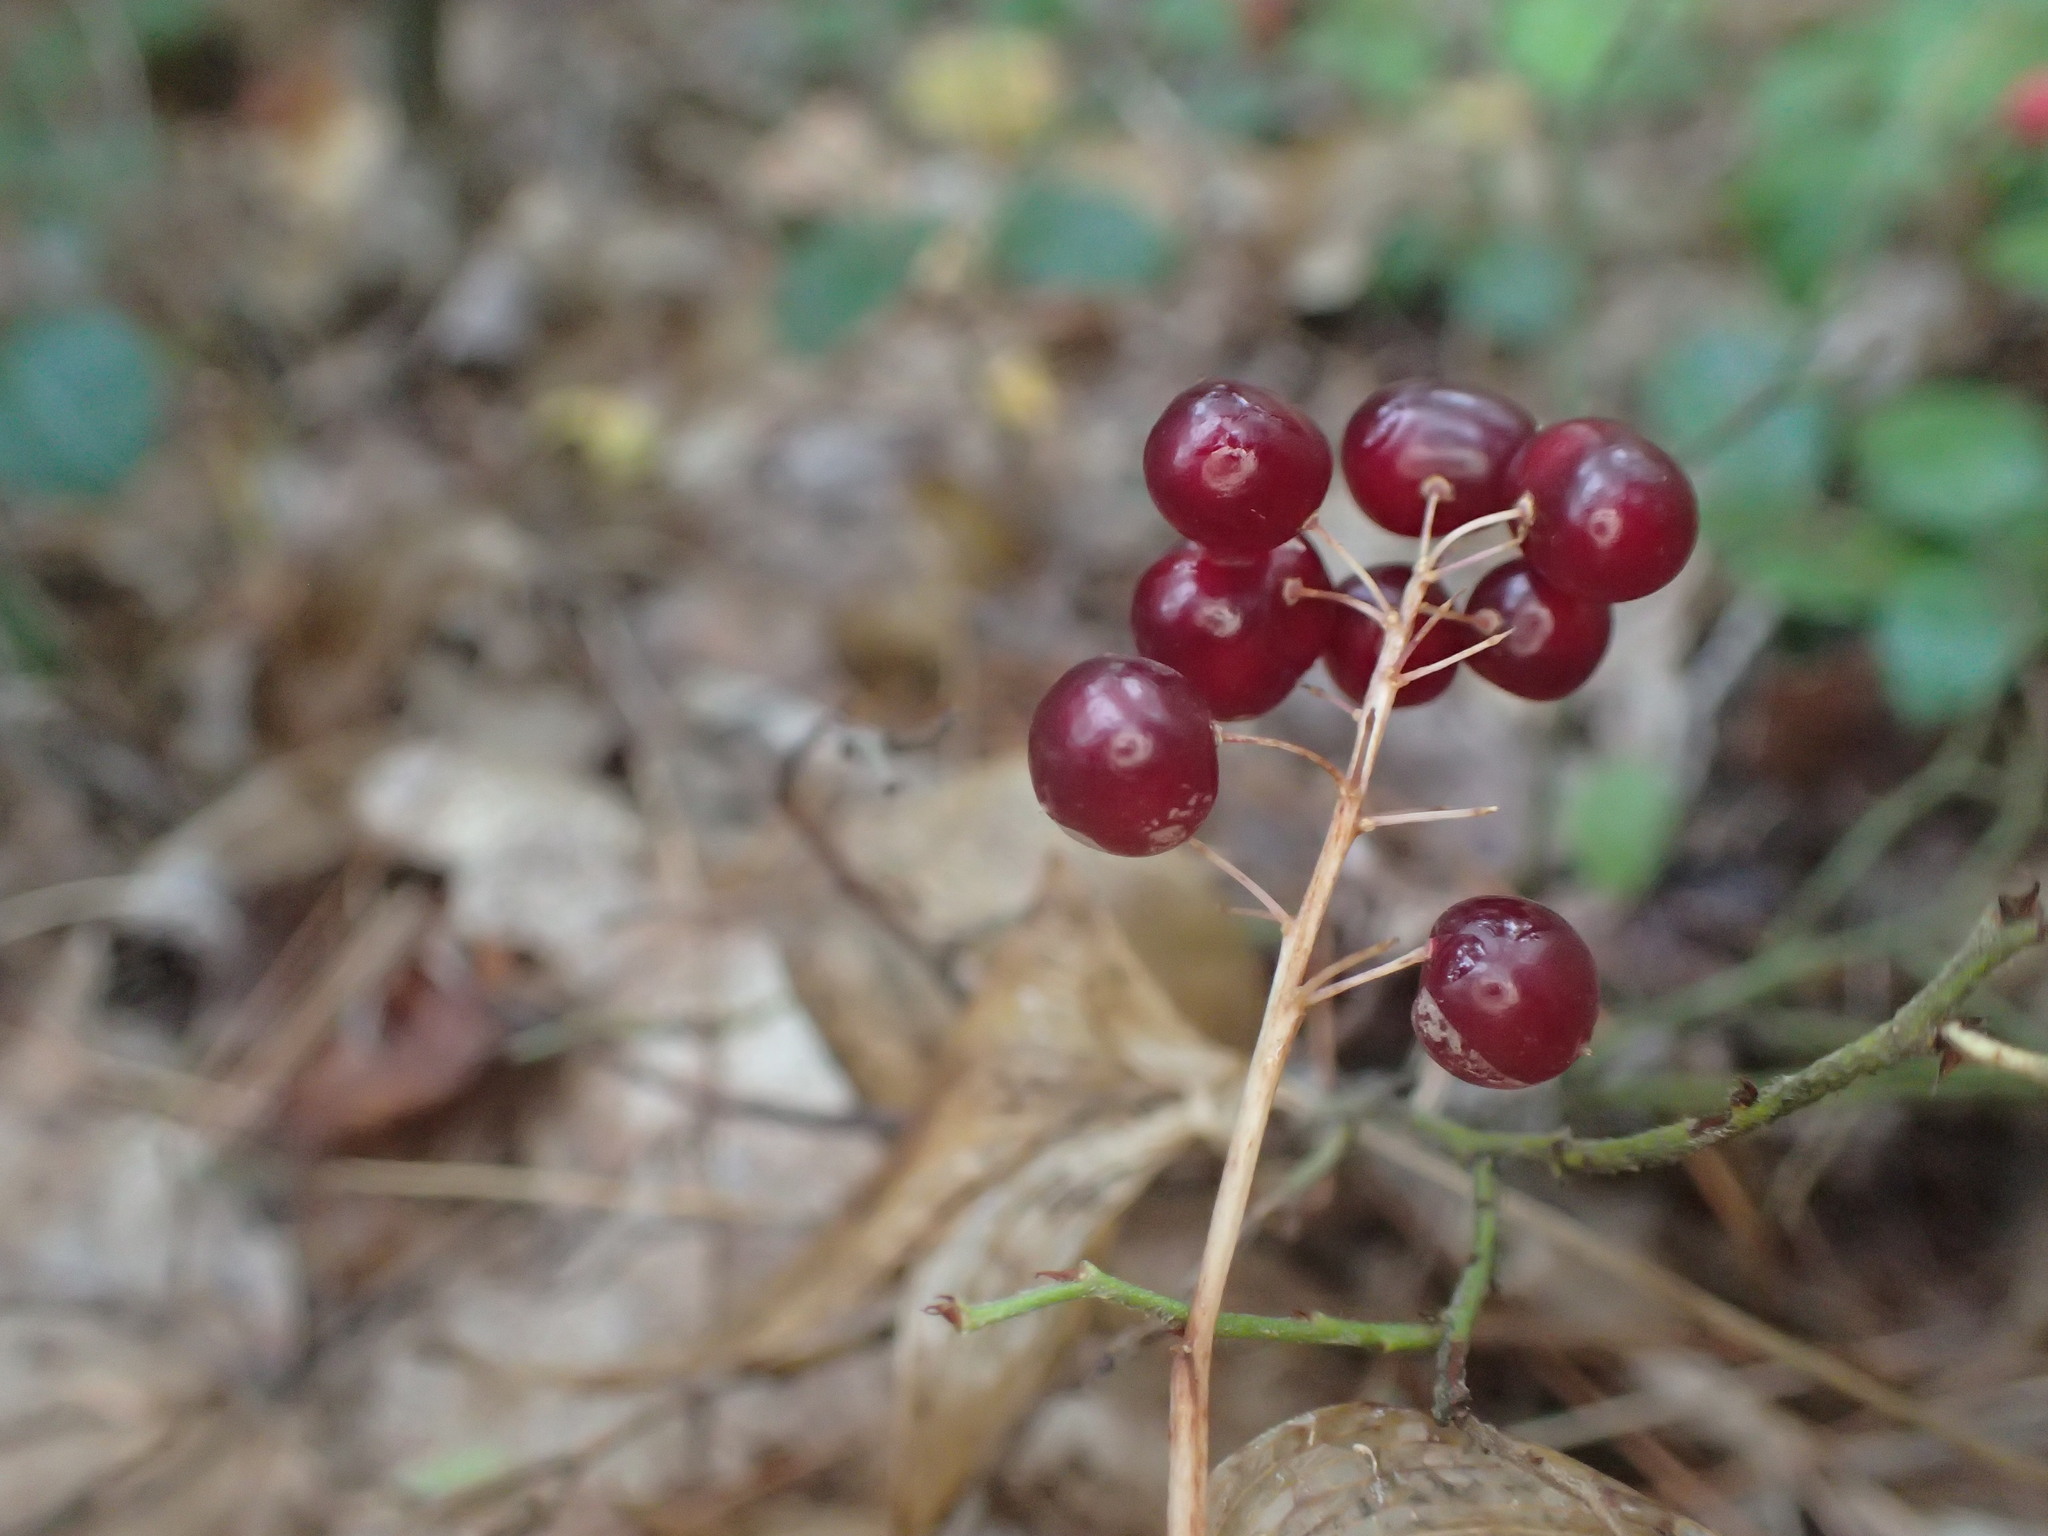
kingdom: Plantae
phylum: Tracheophyta
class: Liliopsida
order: Asparagales
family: Asparagaceae
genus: Maianthemum
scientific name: Maianthemum canadense
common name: False lily-of-the-valley
